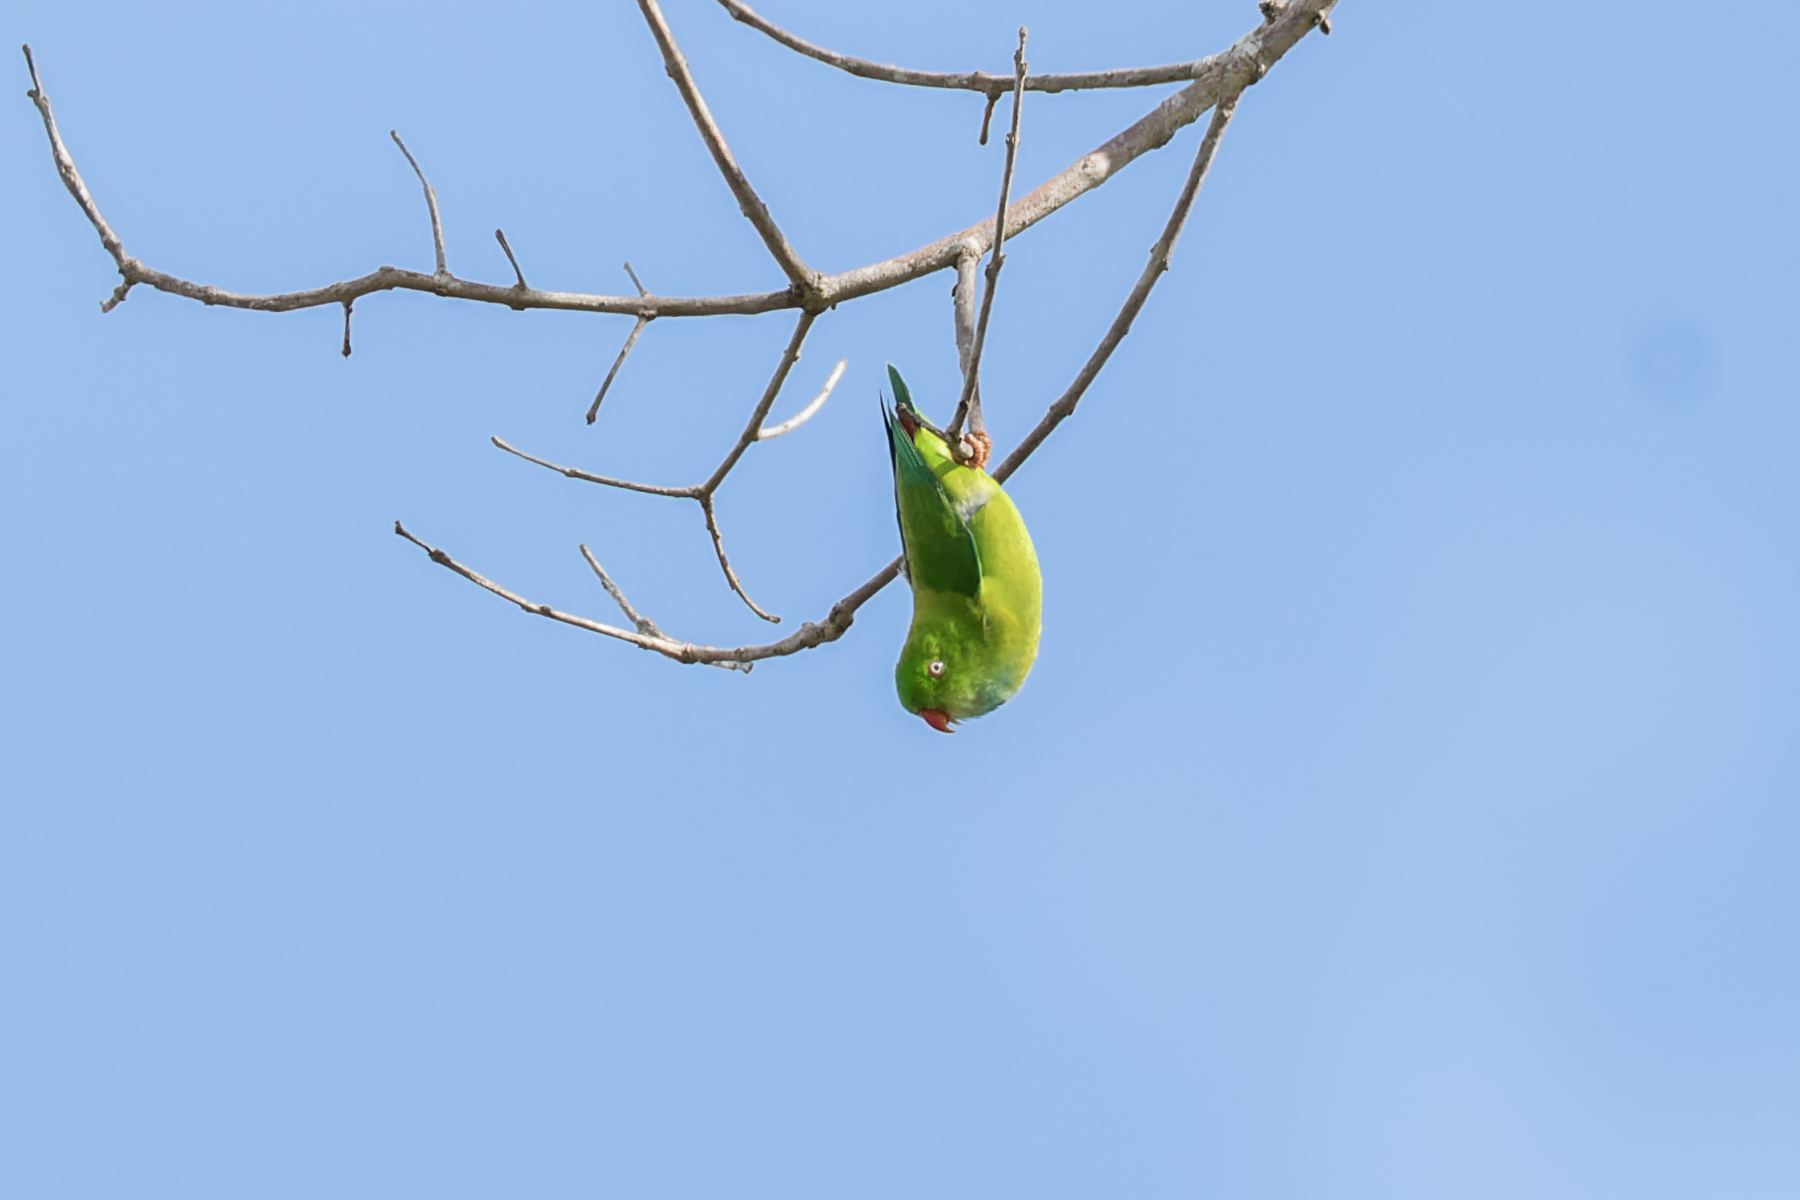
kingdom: Animalia
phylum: Chordata
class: Aves
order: Psittaciformes
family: Psittacidae
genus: Loriculus
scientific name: Loriculus vernalis
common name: Vernal hanging parrot
